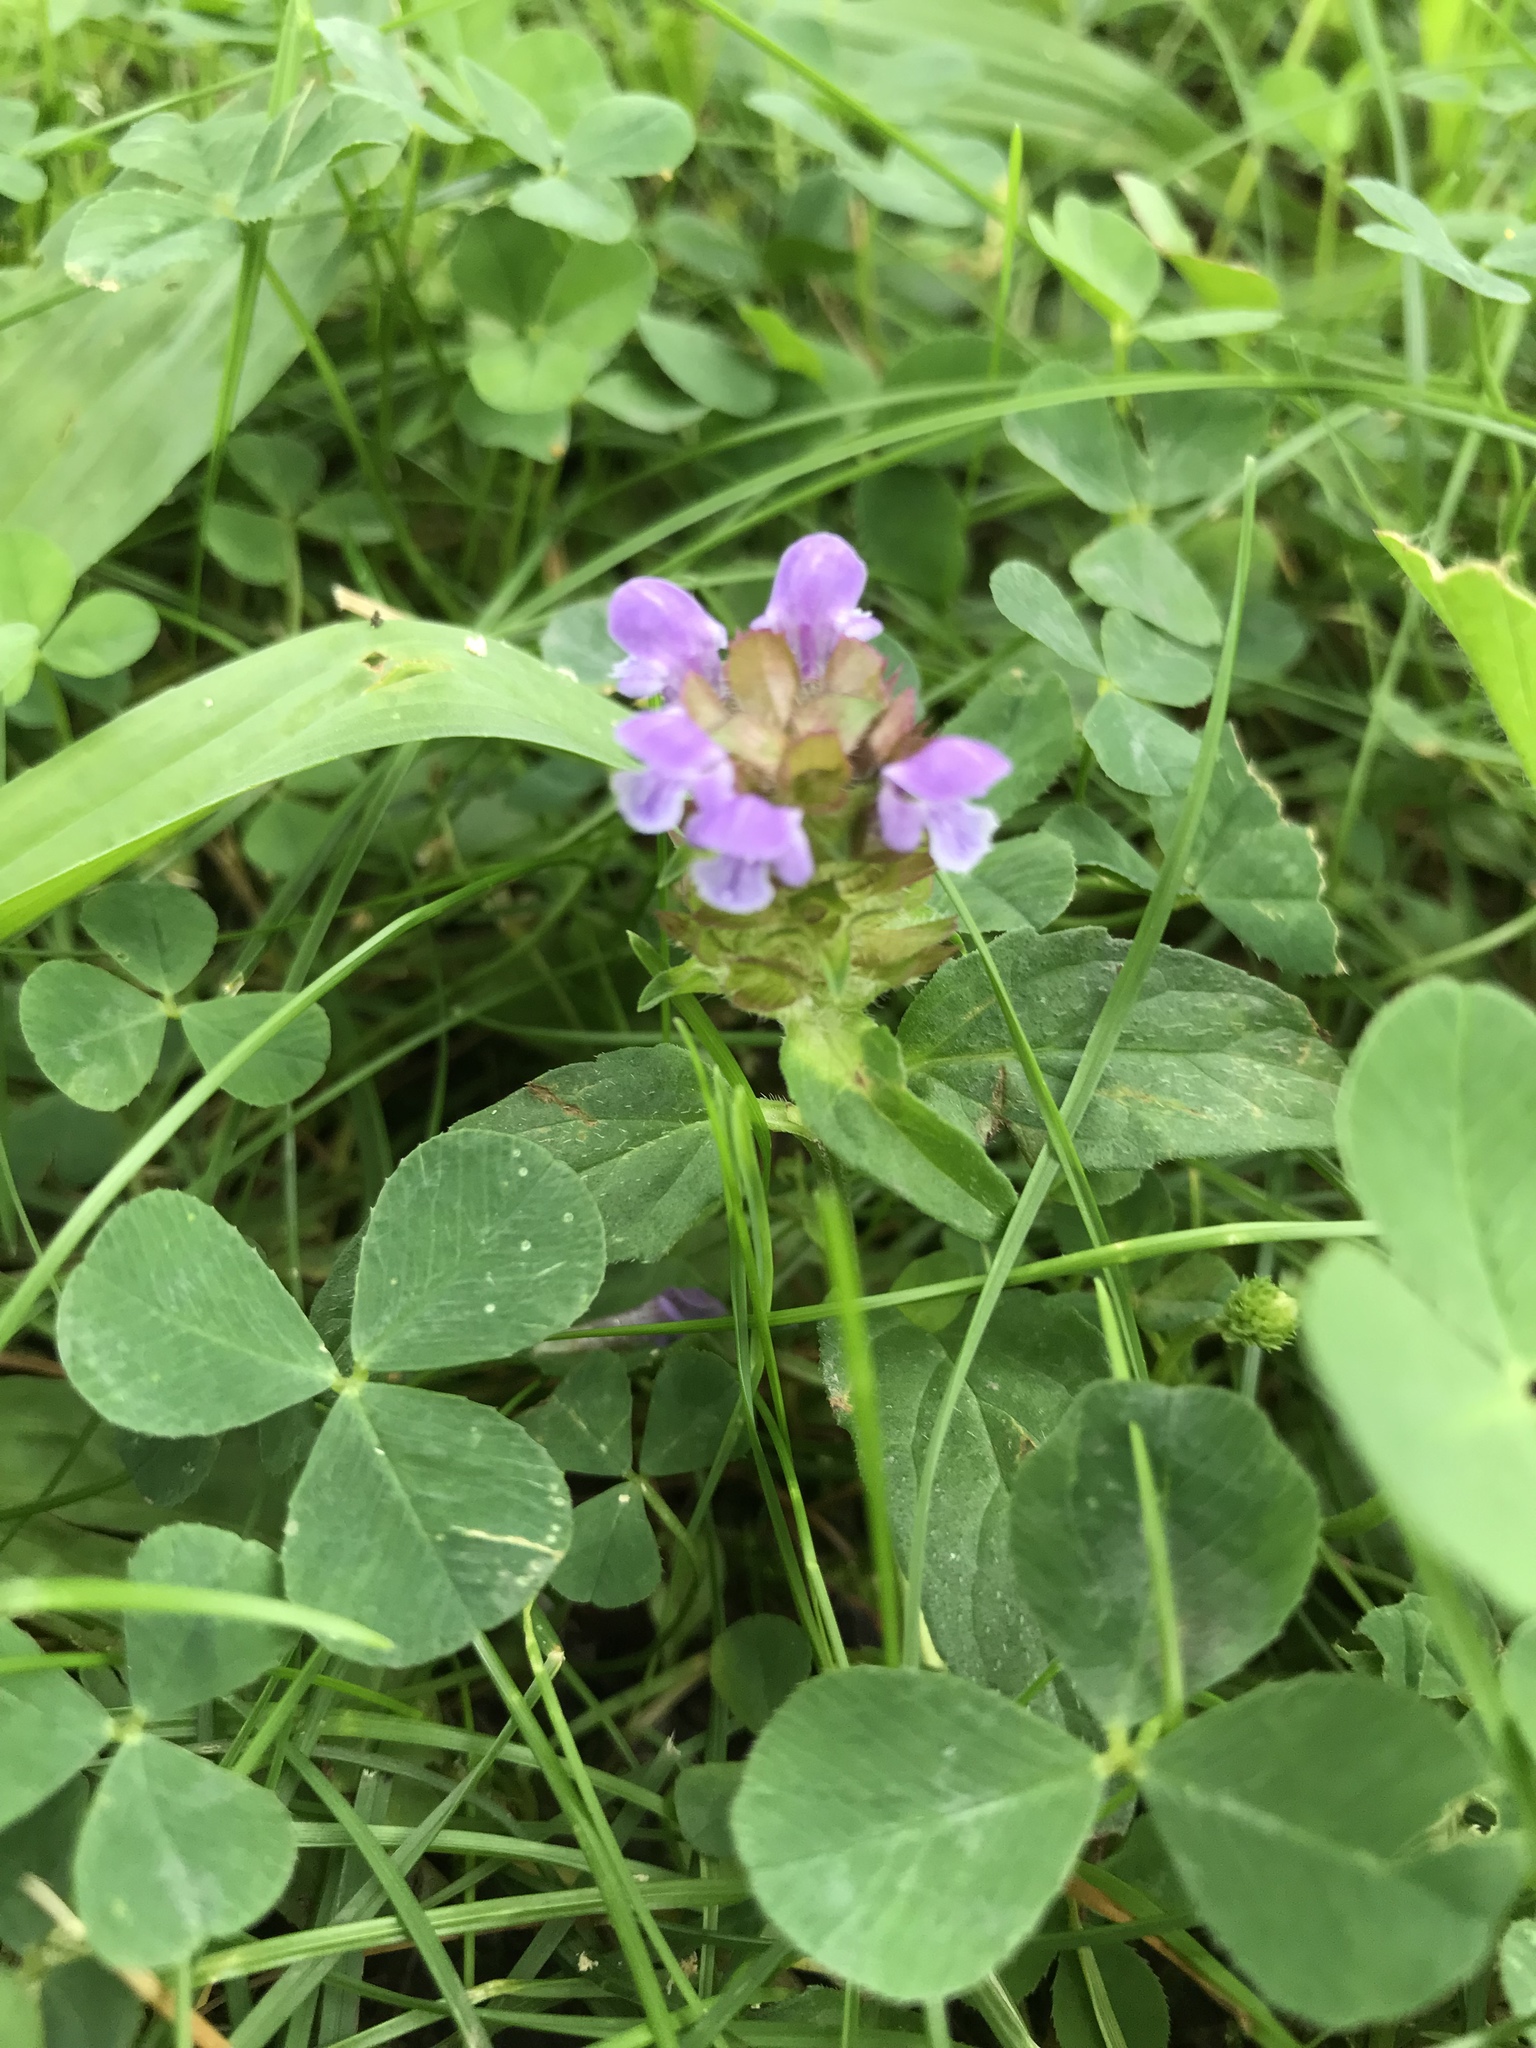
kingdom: Plantae
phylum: Tracheophyta
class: Magnoliopsida
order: Lamiales
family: Lamiaceae
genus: Prunella
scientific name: Prunella vulgaris
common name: Heal-all
